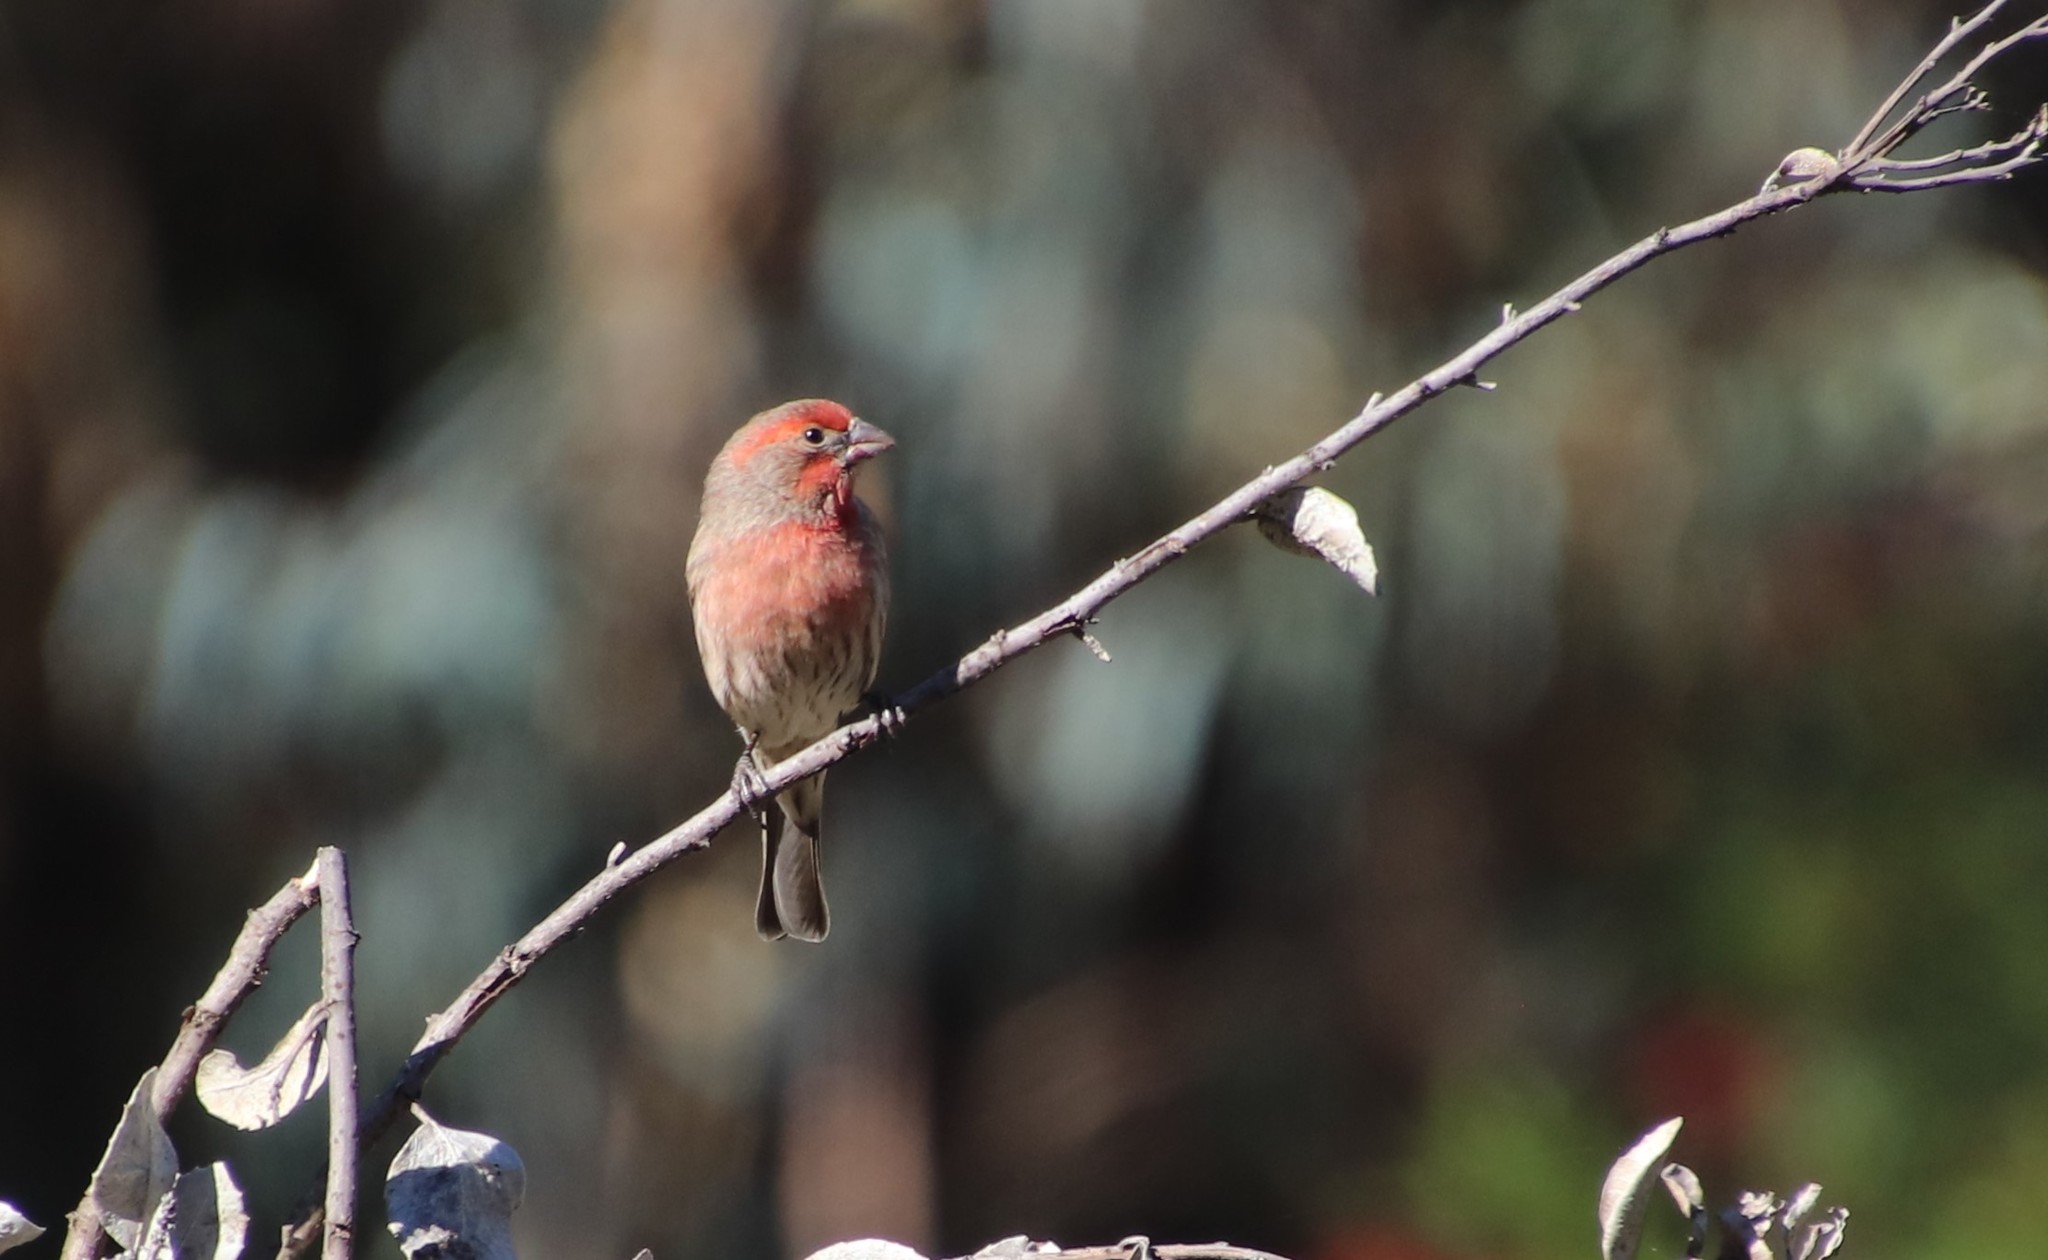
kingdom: Animalia
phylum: Chordata
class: Aves
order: Passeriformes
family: Fringillidae
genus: Haemorhous
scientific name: Haemorhous mexicanus
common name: House finch
